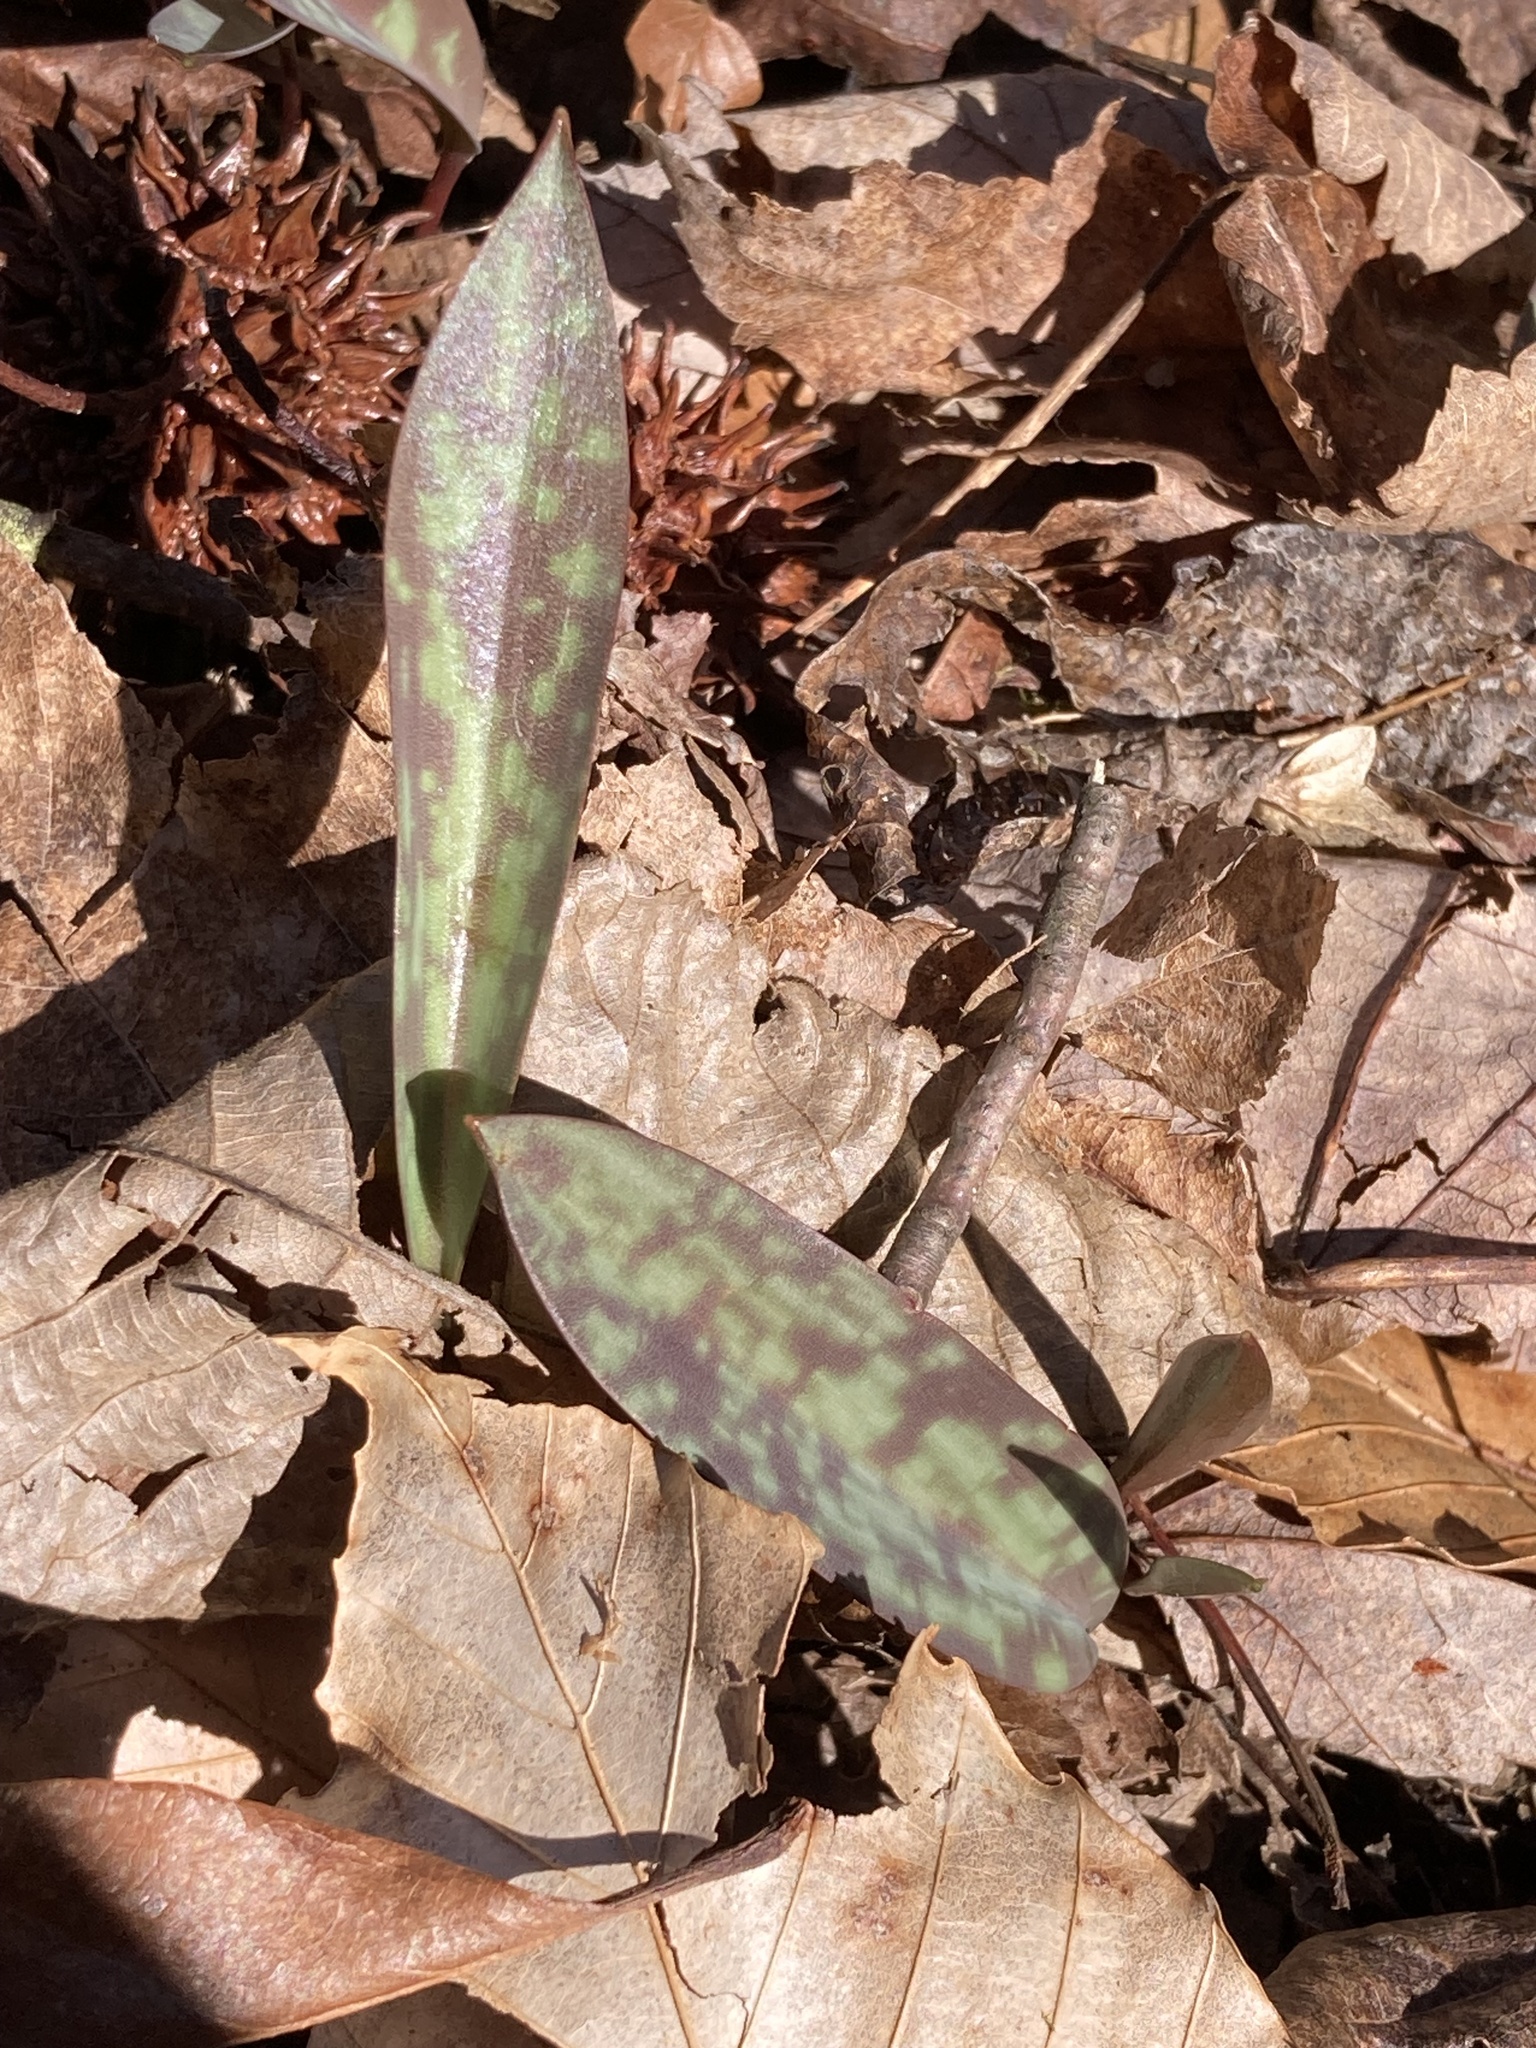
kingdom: Plantae
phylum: Tracheophyta
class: Liliopsida
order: Liliales
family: Liliaceae
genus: Erythronium
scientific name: Erythronium americanum
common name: Yellow adder's-tongue
